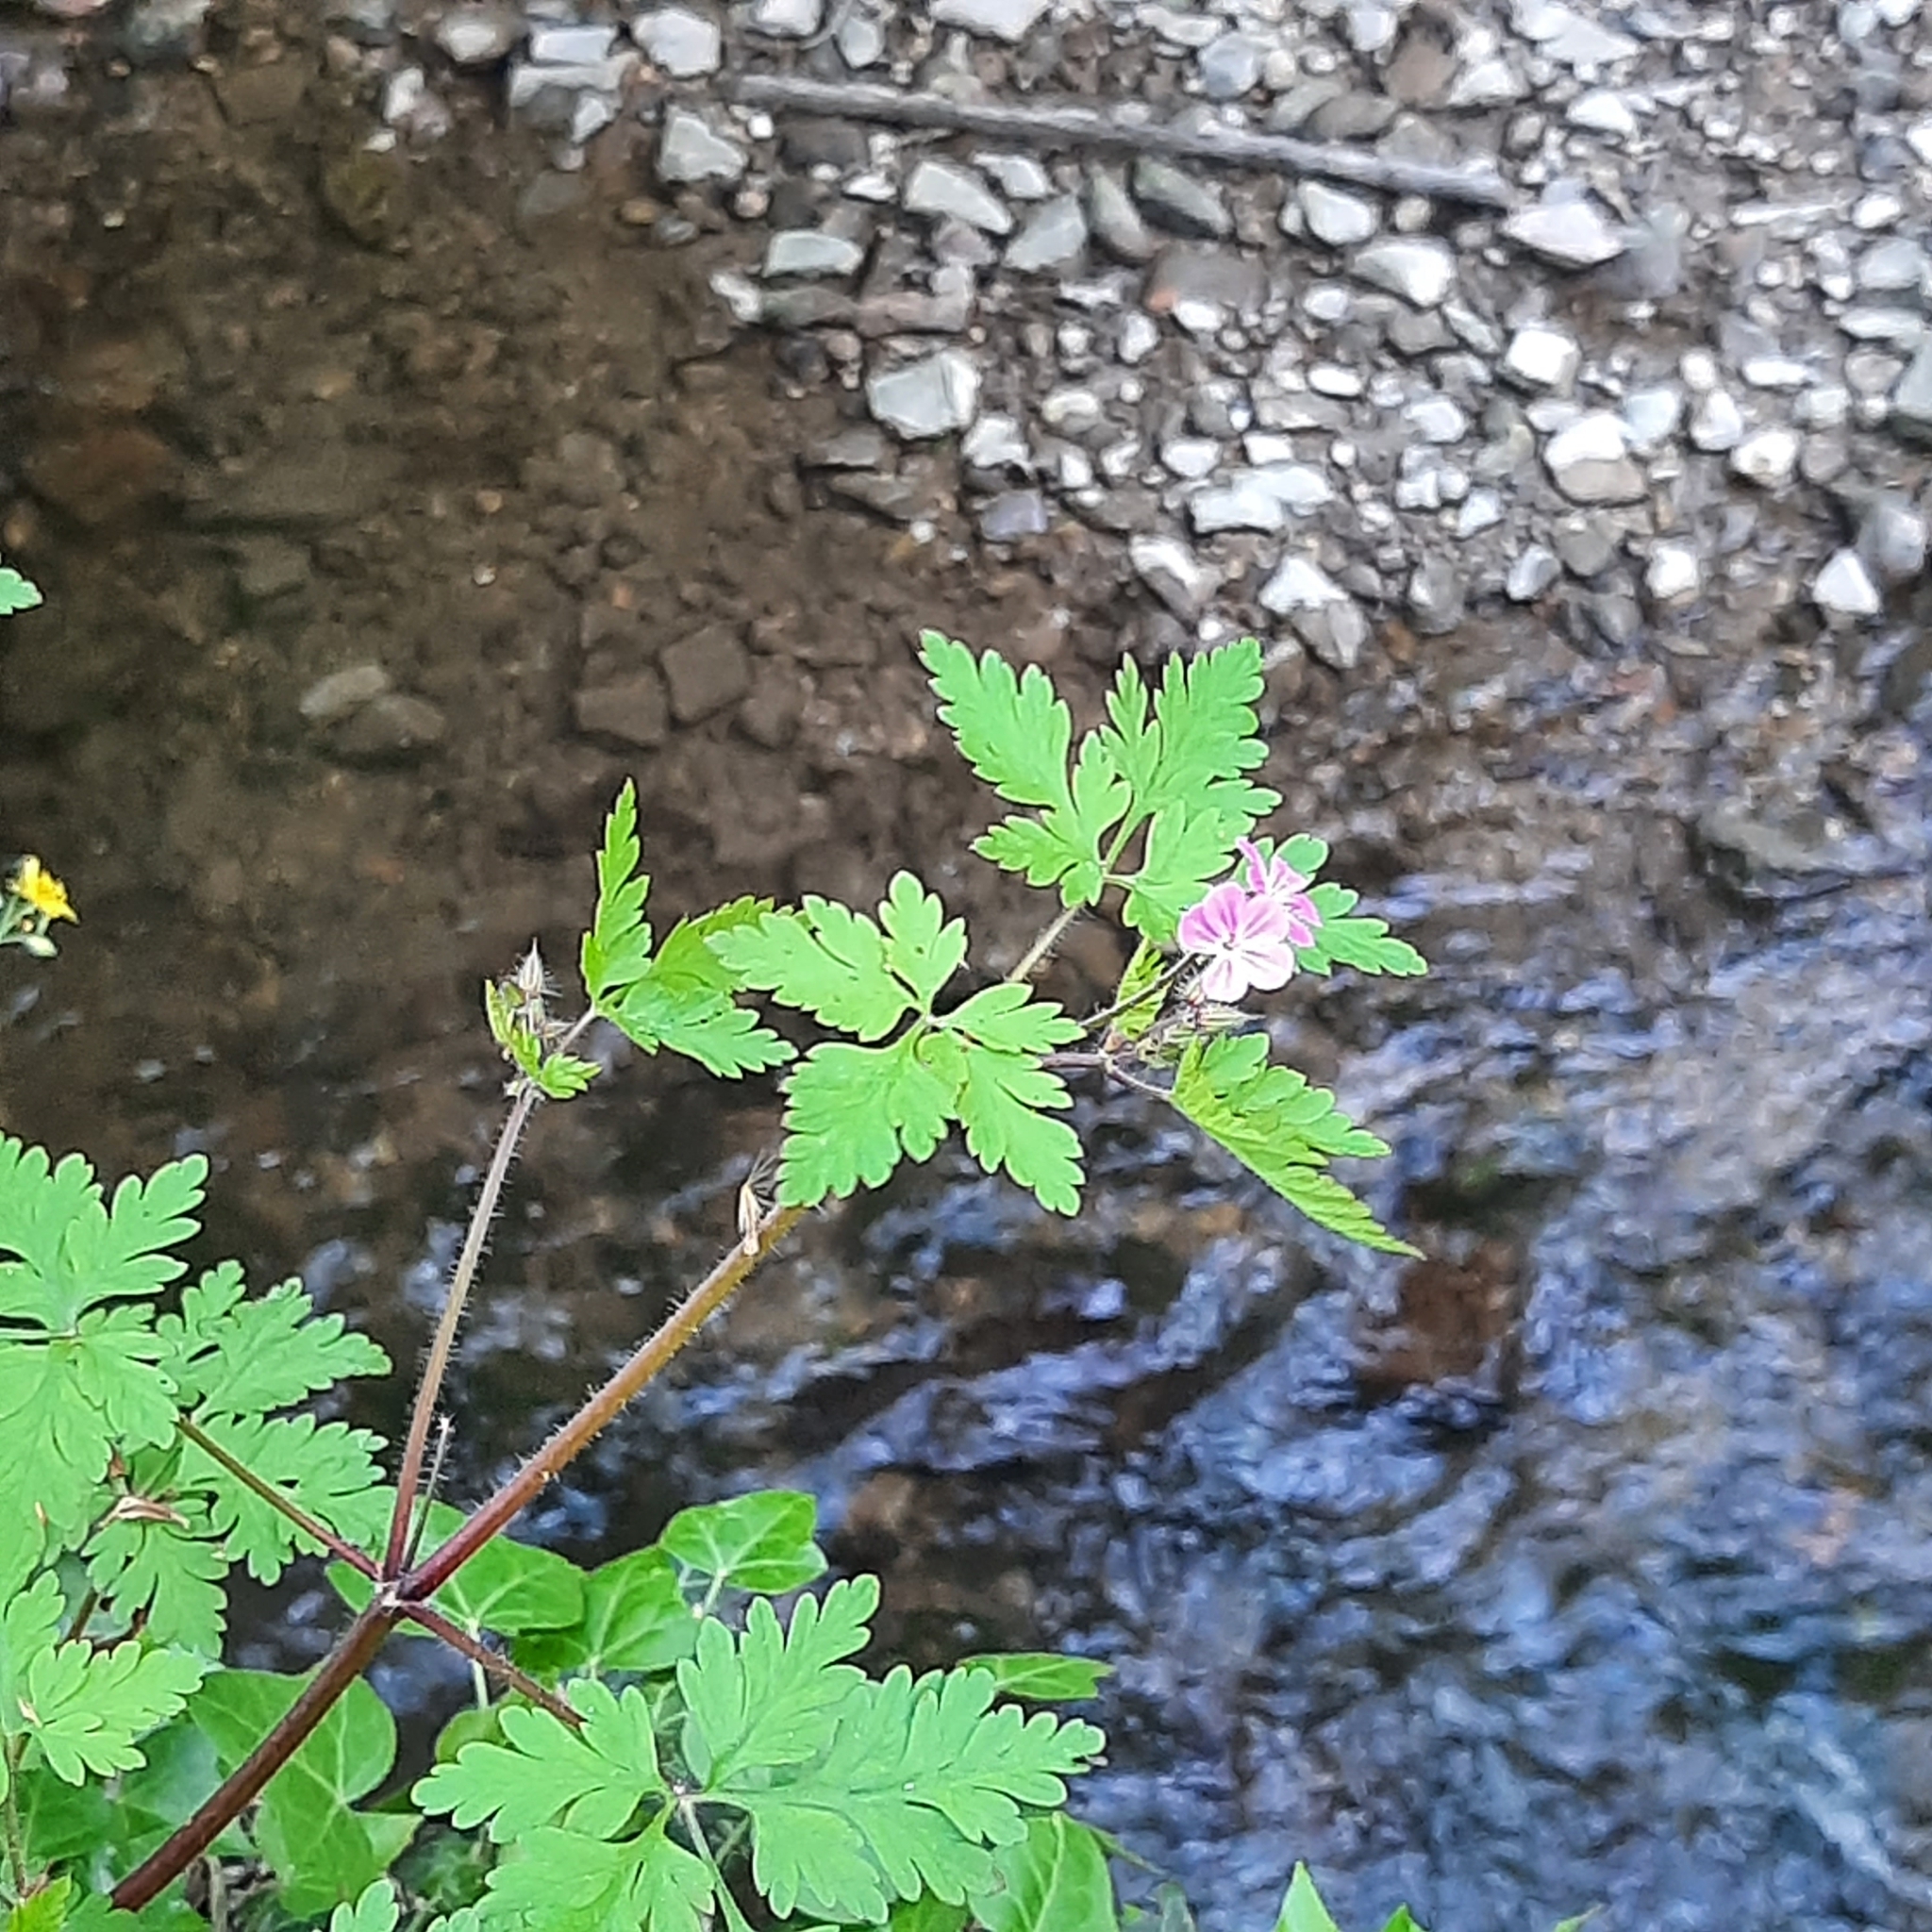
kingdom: Plantae
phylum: Tracheophyta
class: Magnoliopsida
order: Geraniales
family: Geraniaceae
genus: Geranium
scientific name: Geranium robertianum
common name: Herb-robert
